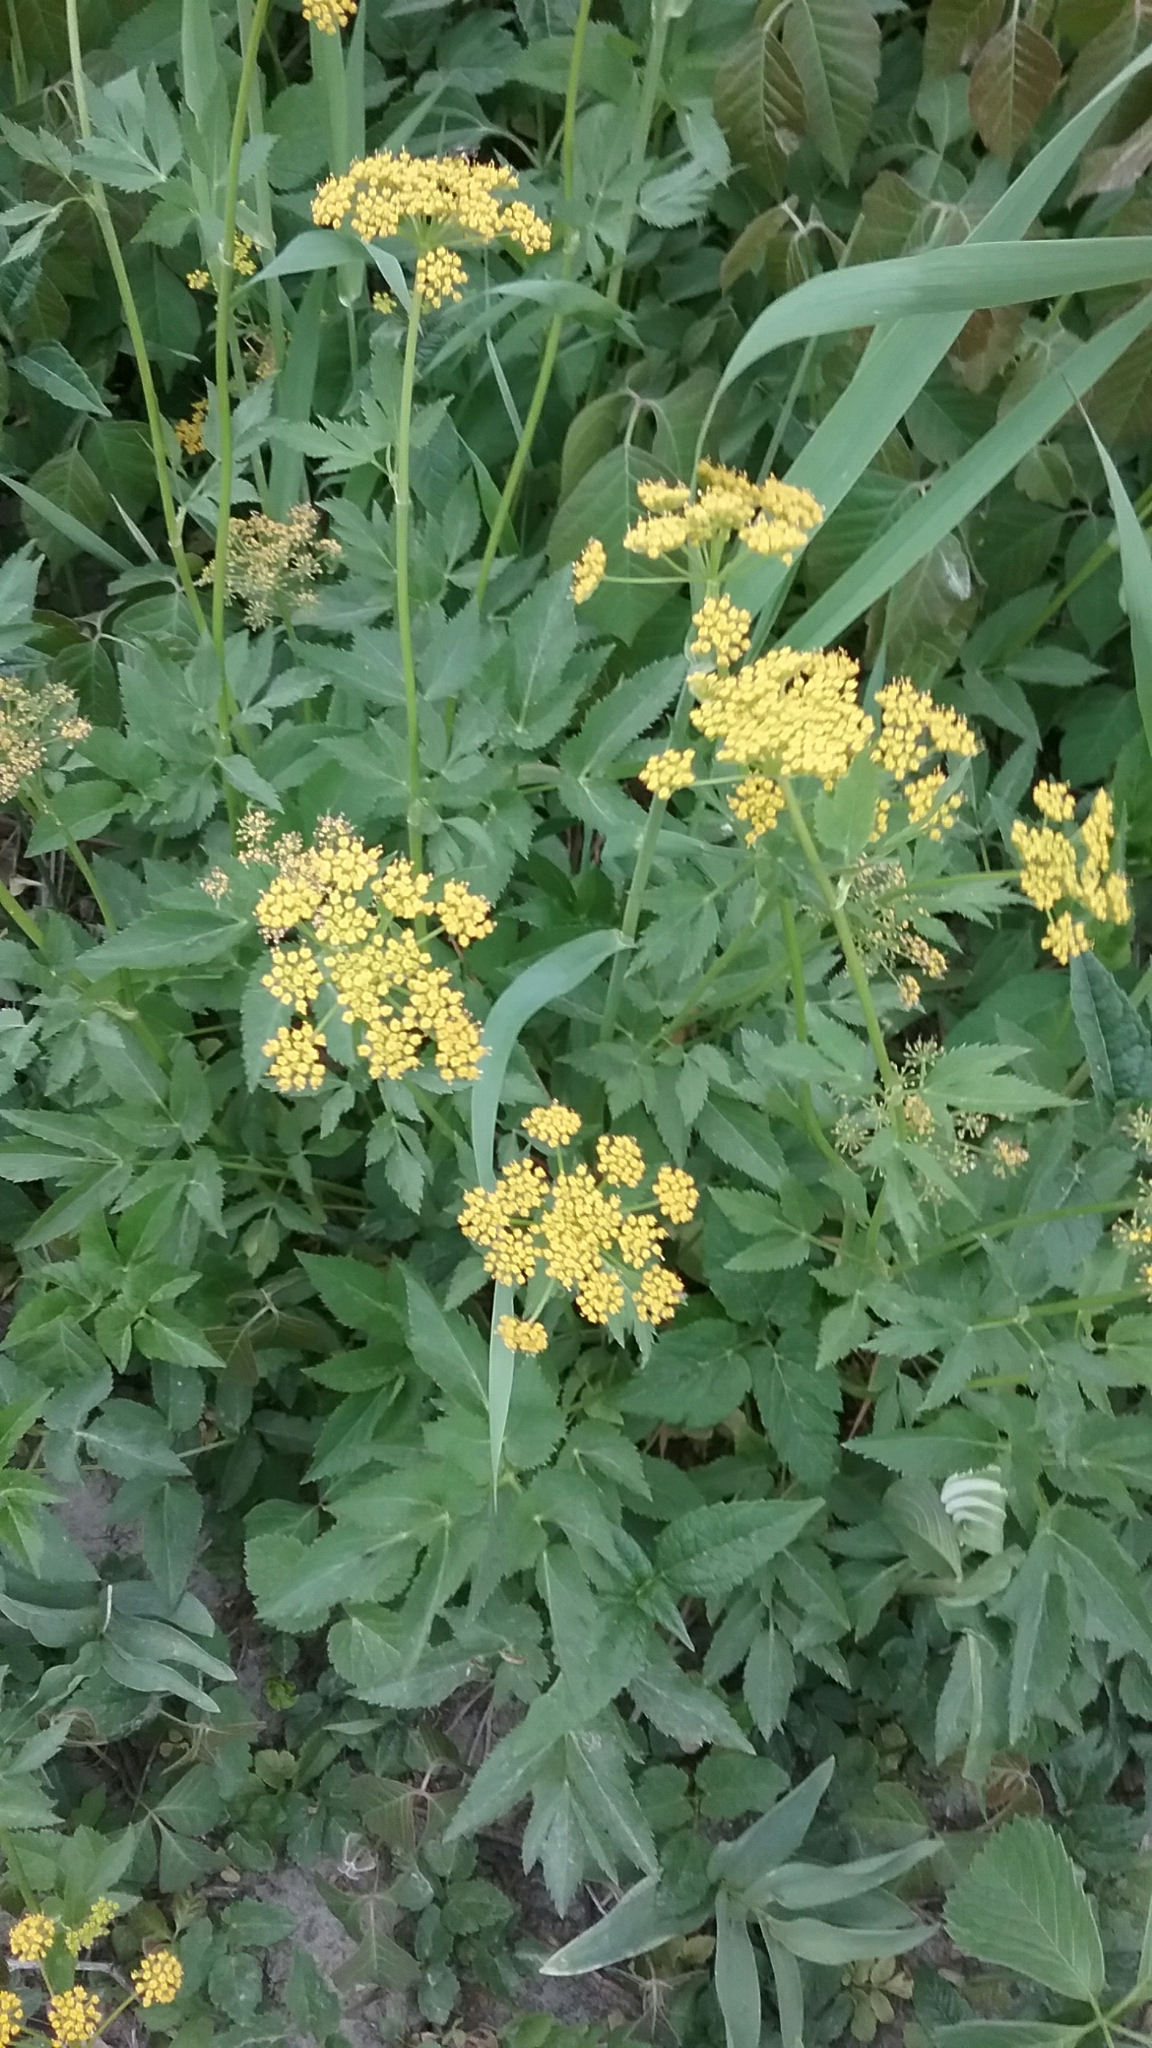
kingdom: Plantae
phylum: Tracheophyta
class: Magnoliopsida
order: Apiales
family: Apiaceae
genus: Zizia
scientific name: Zizia aurea
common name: Golden alexanders
